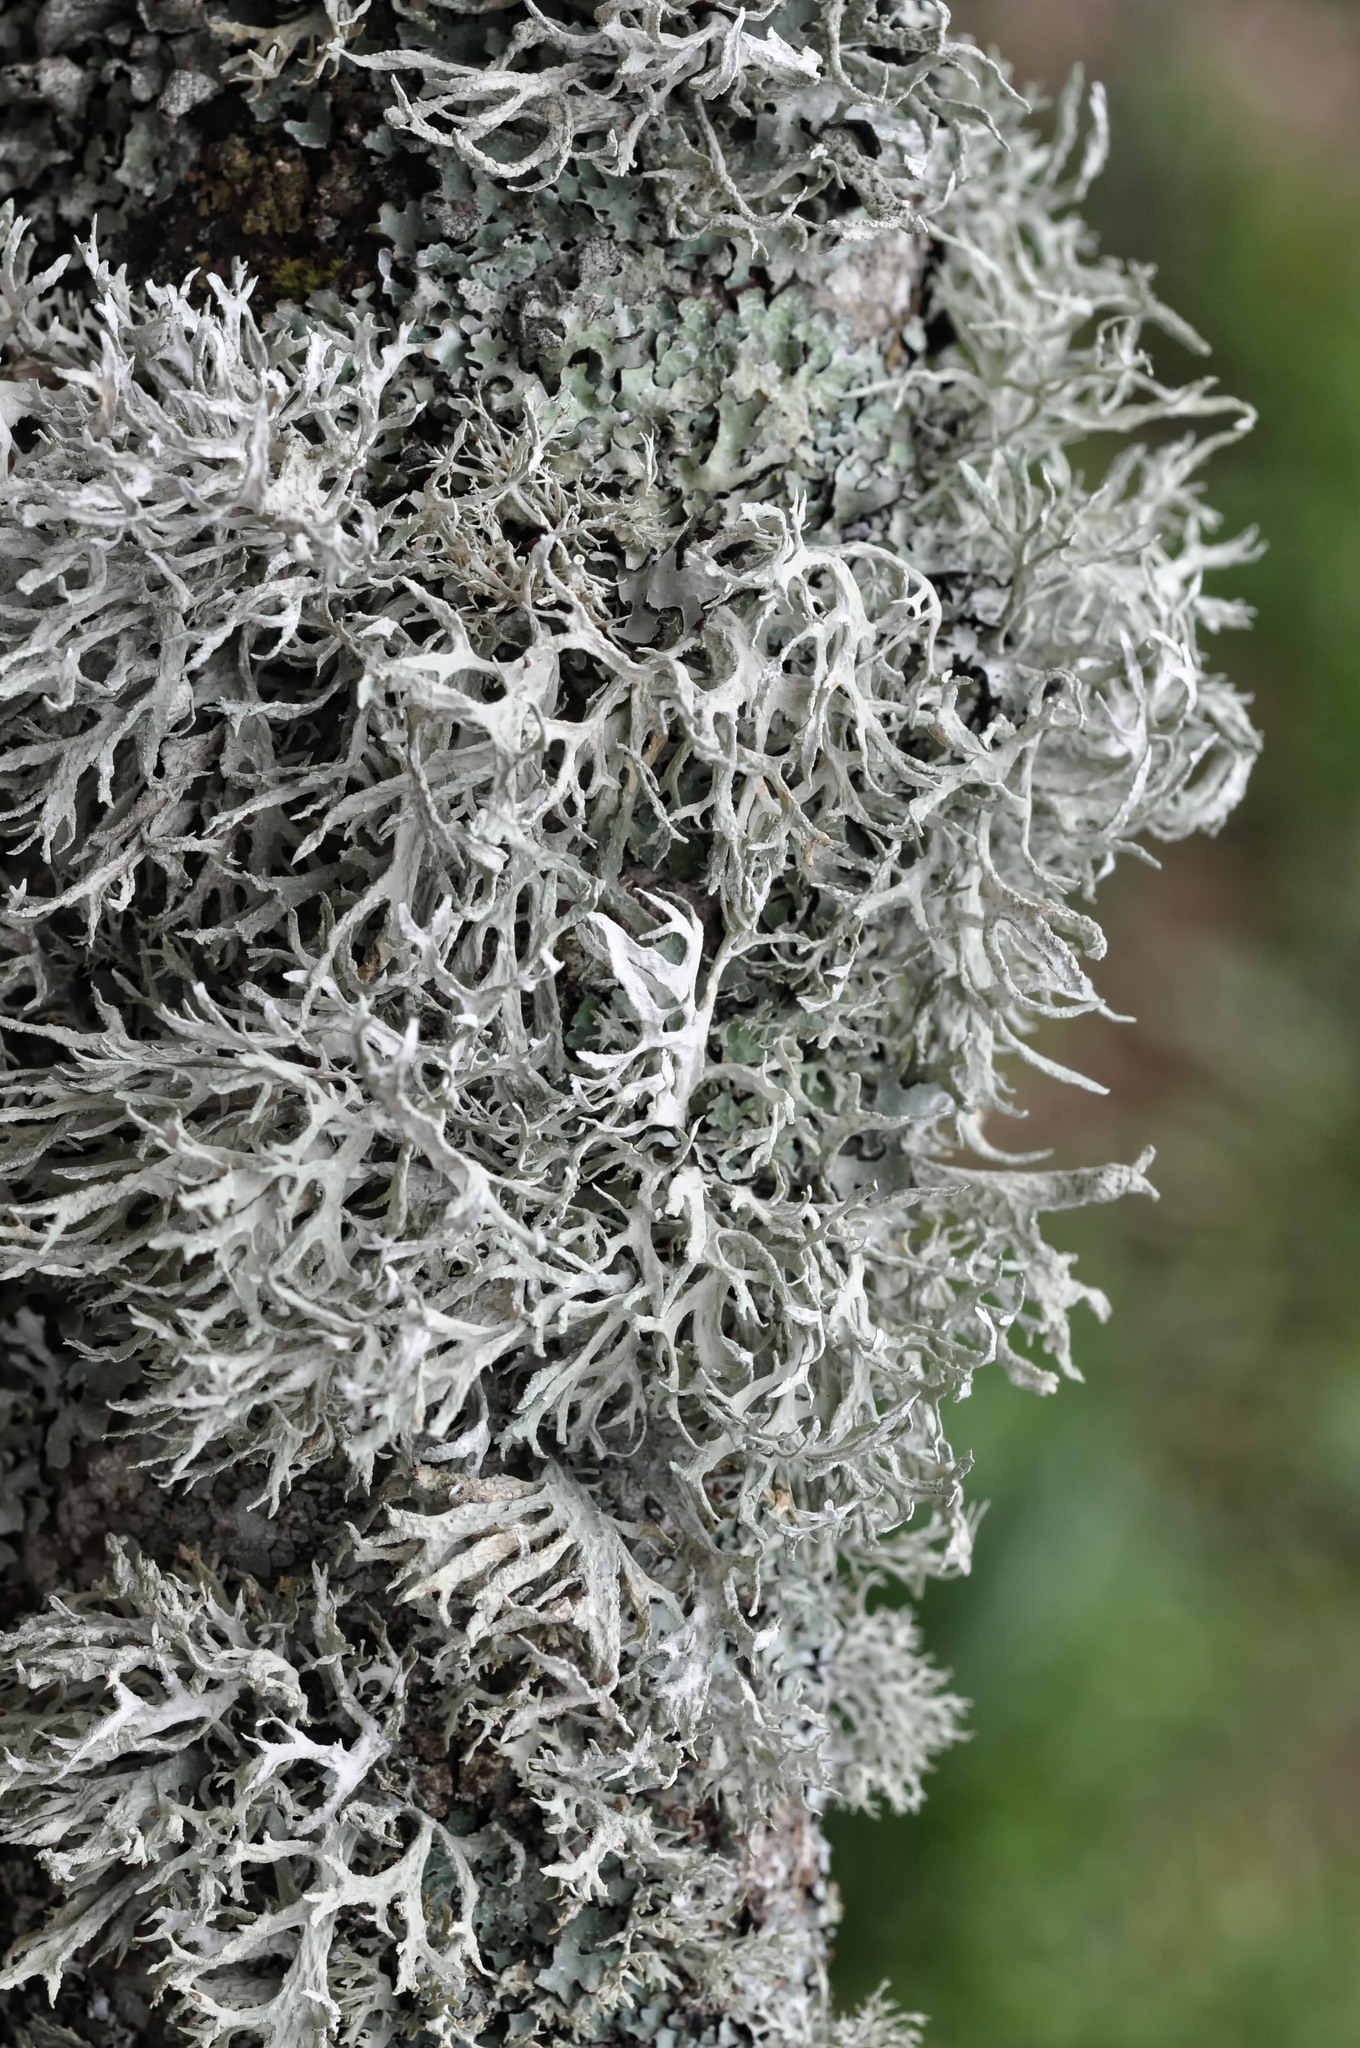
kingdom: Fungi
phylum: Ascomycota
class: Lecanoromycetes
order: Lecanorales
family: Parmeliaceae
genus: Evernia
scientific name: Evernia prunastri
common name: Oak moss
